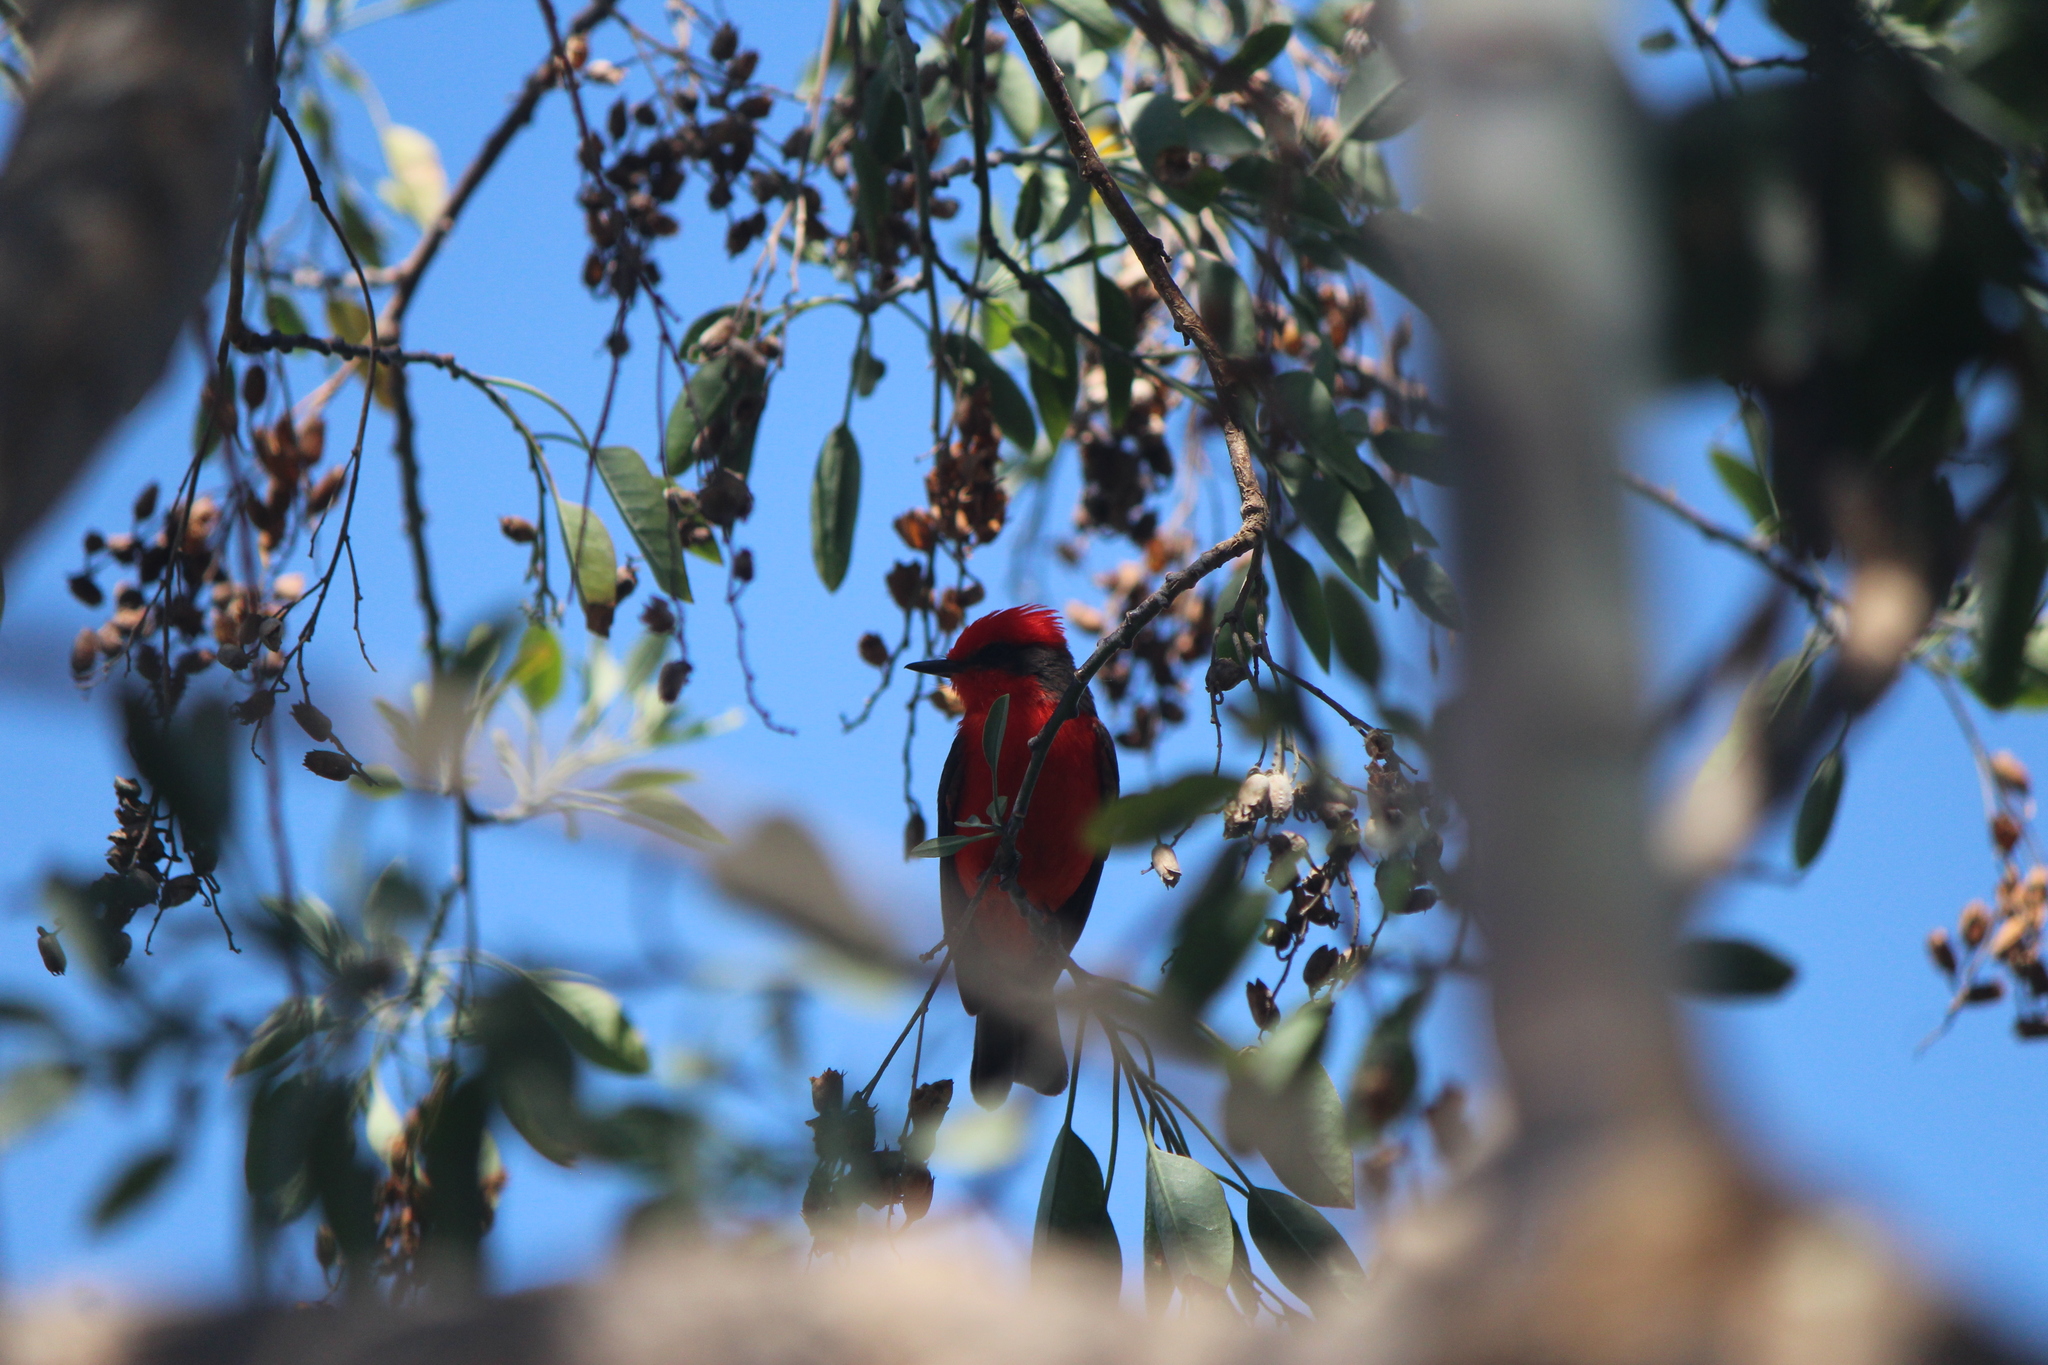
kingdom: Animalia
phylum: Chordata
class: Aves
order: Passeriformes
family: Tyrannidae
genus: Pyrocephalus
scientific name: Pyrocephalus rubinus
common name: Vermilion flycatcher
